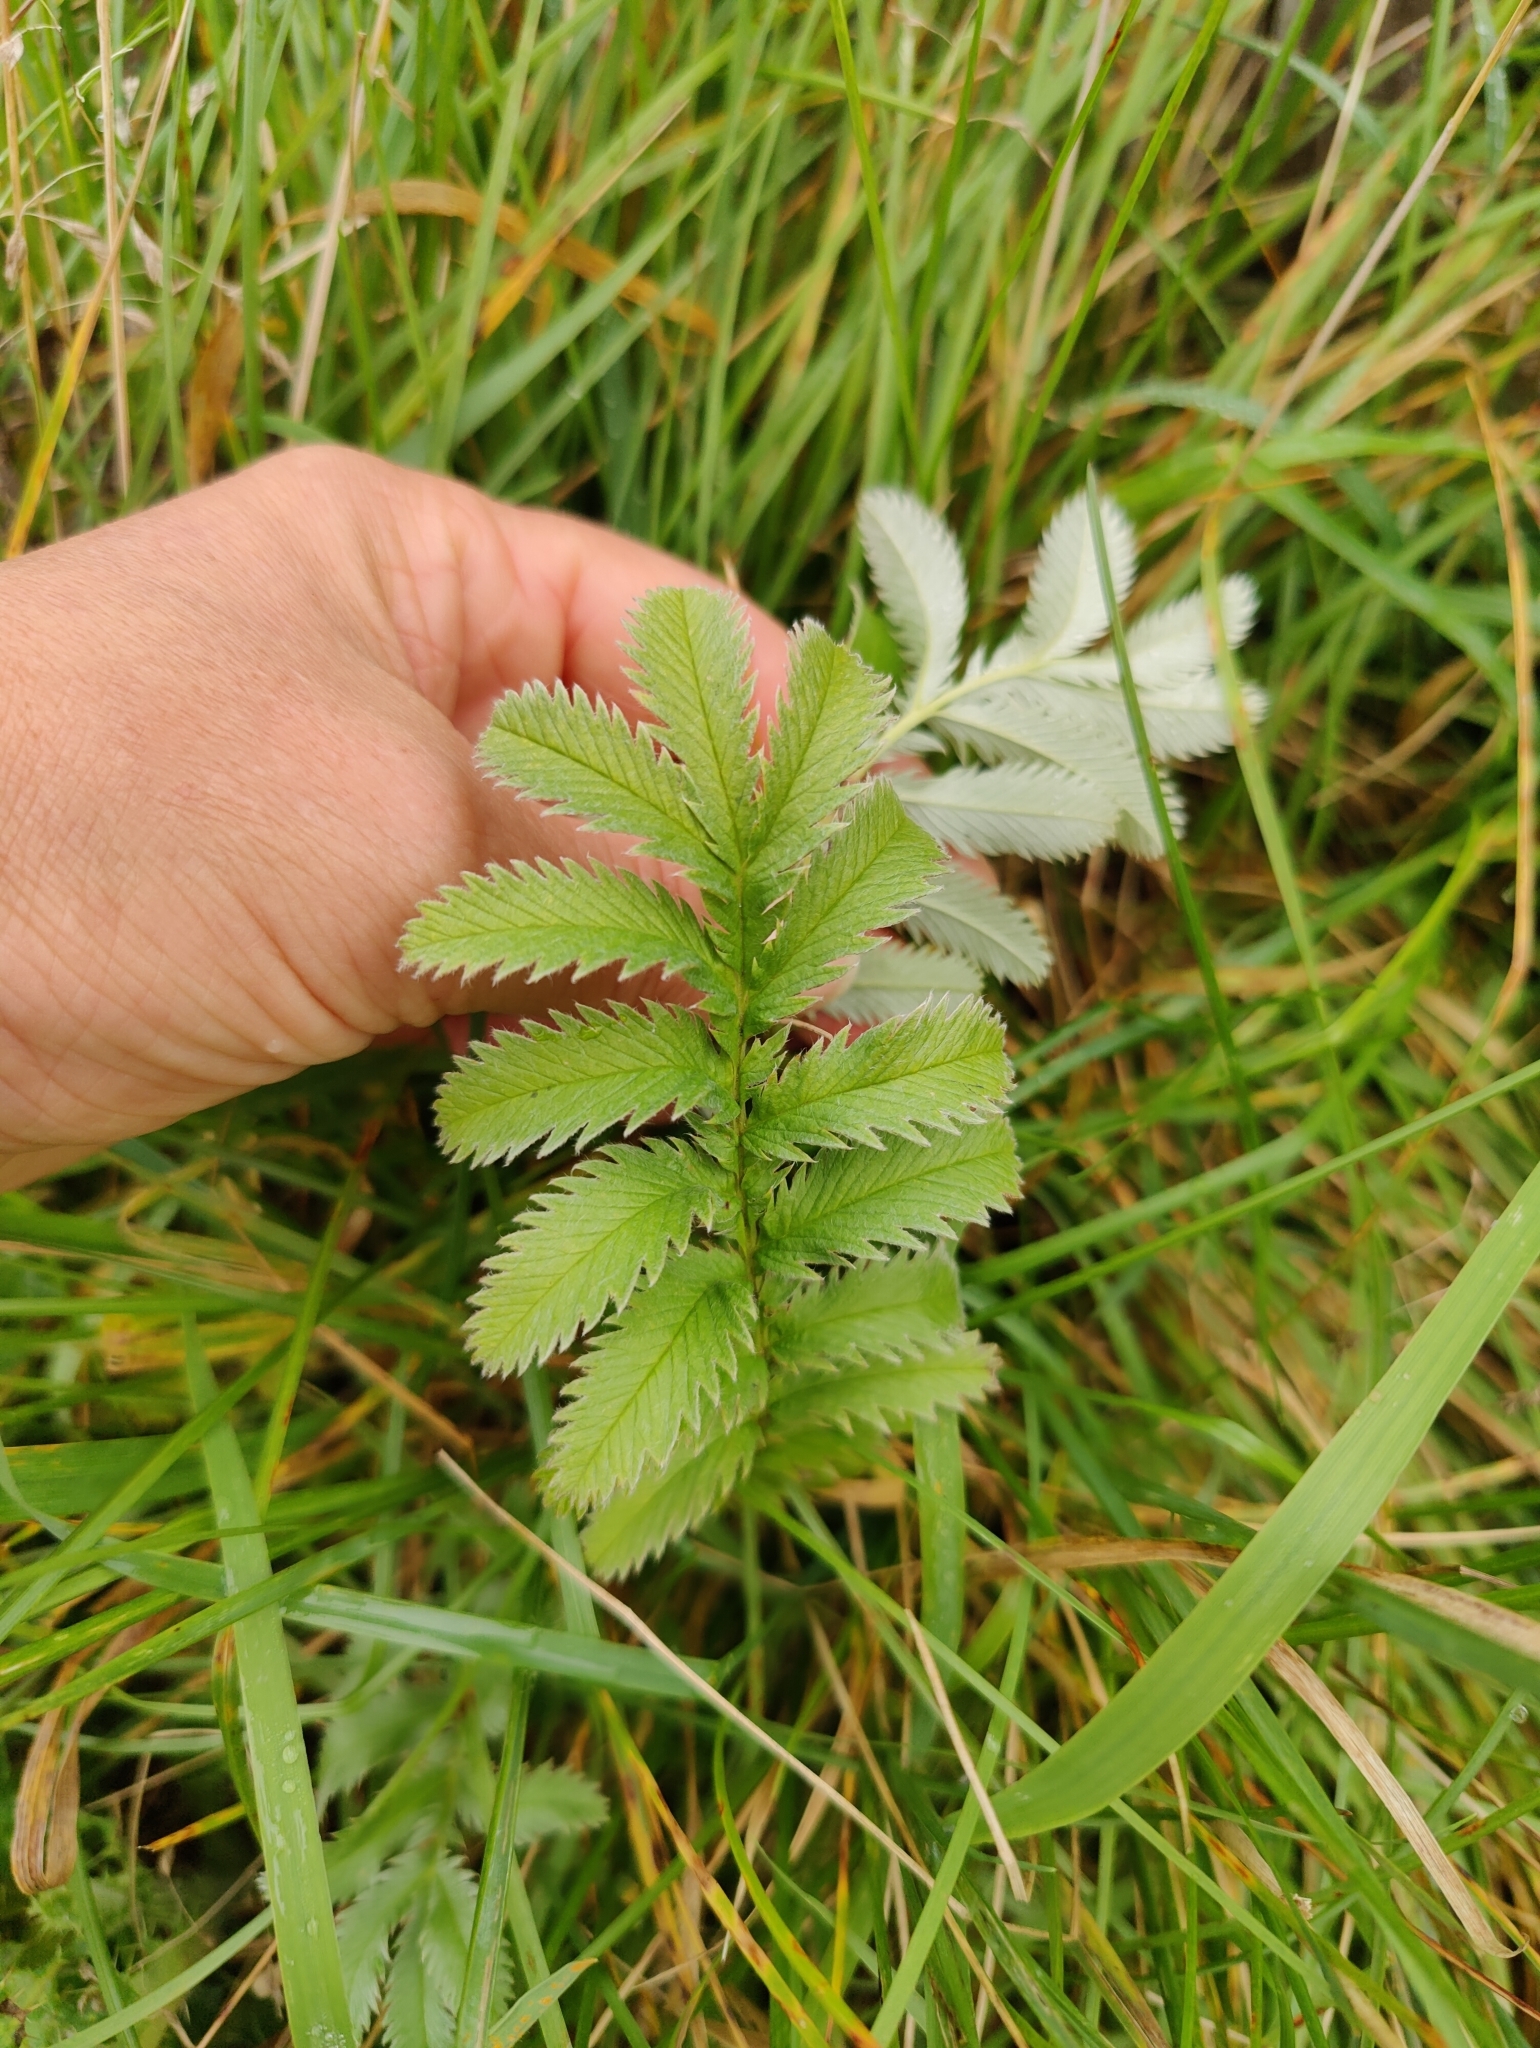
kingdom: Plantae
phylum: Tracheophyta
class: Magnoliopsida
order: Rosales
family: Rosaceae
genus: Argentina
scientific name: Argentina anserina
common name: Common silverweed
